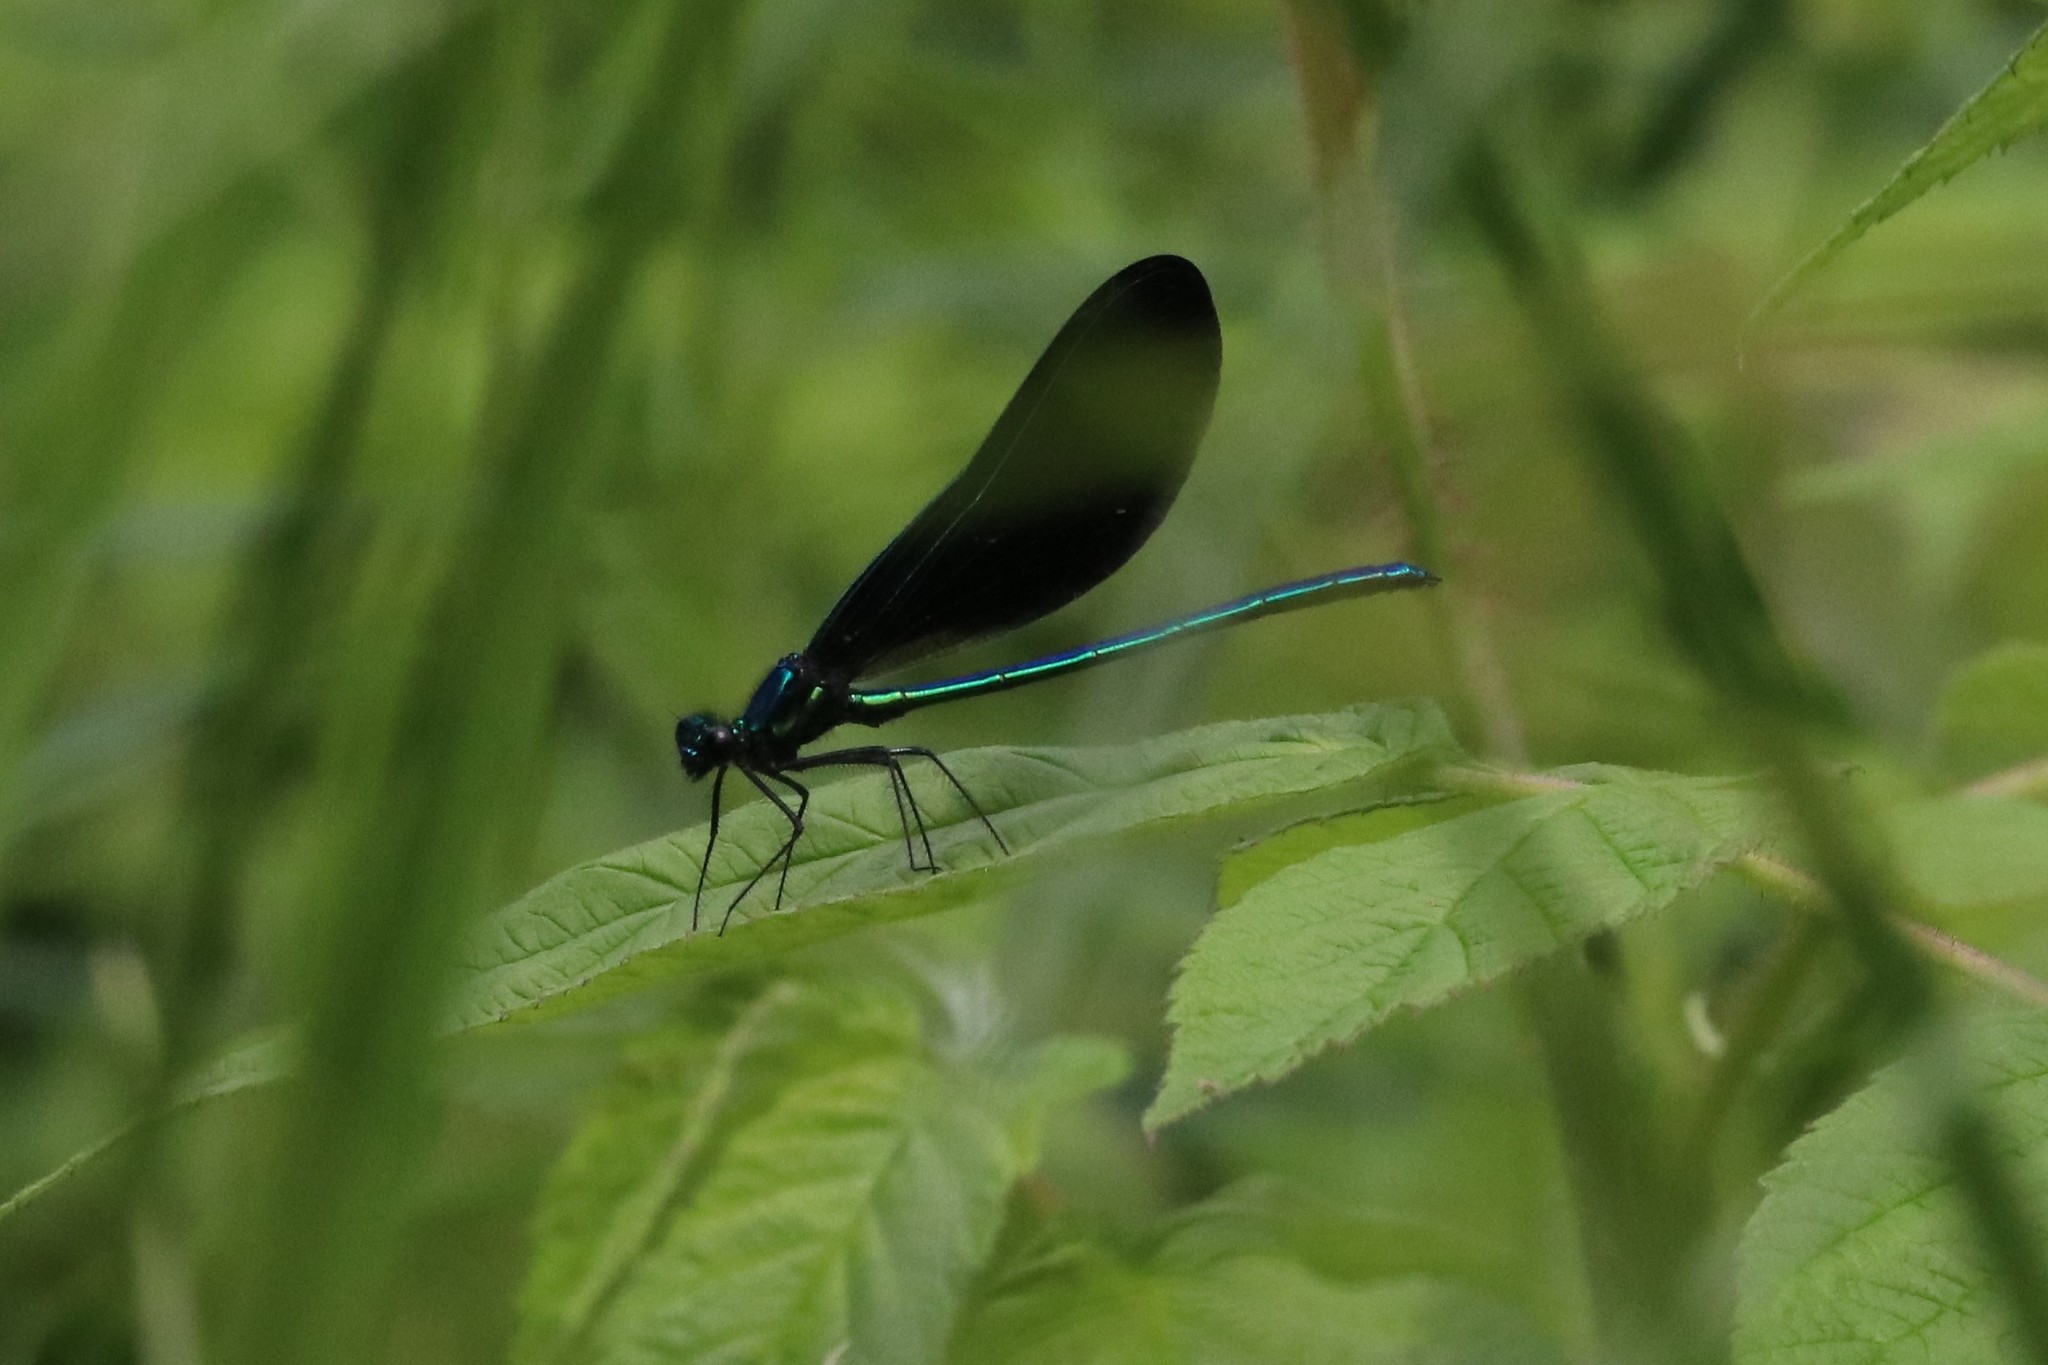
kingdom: Animalia
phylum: Arthropoda
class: Insecta
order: Odonata
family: Calopterygidae
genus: Calopteryx
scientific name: Calopteryx maculata
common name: Ebony jewelwing
